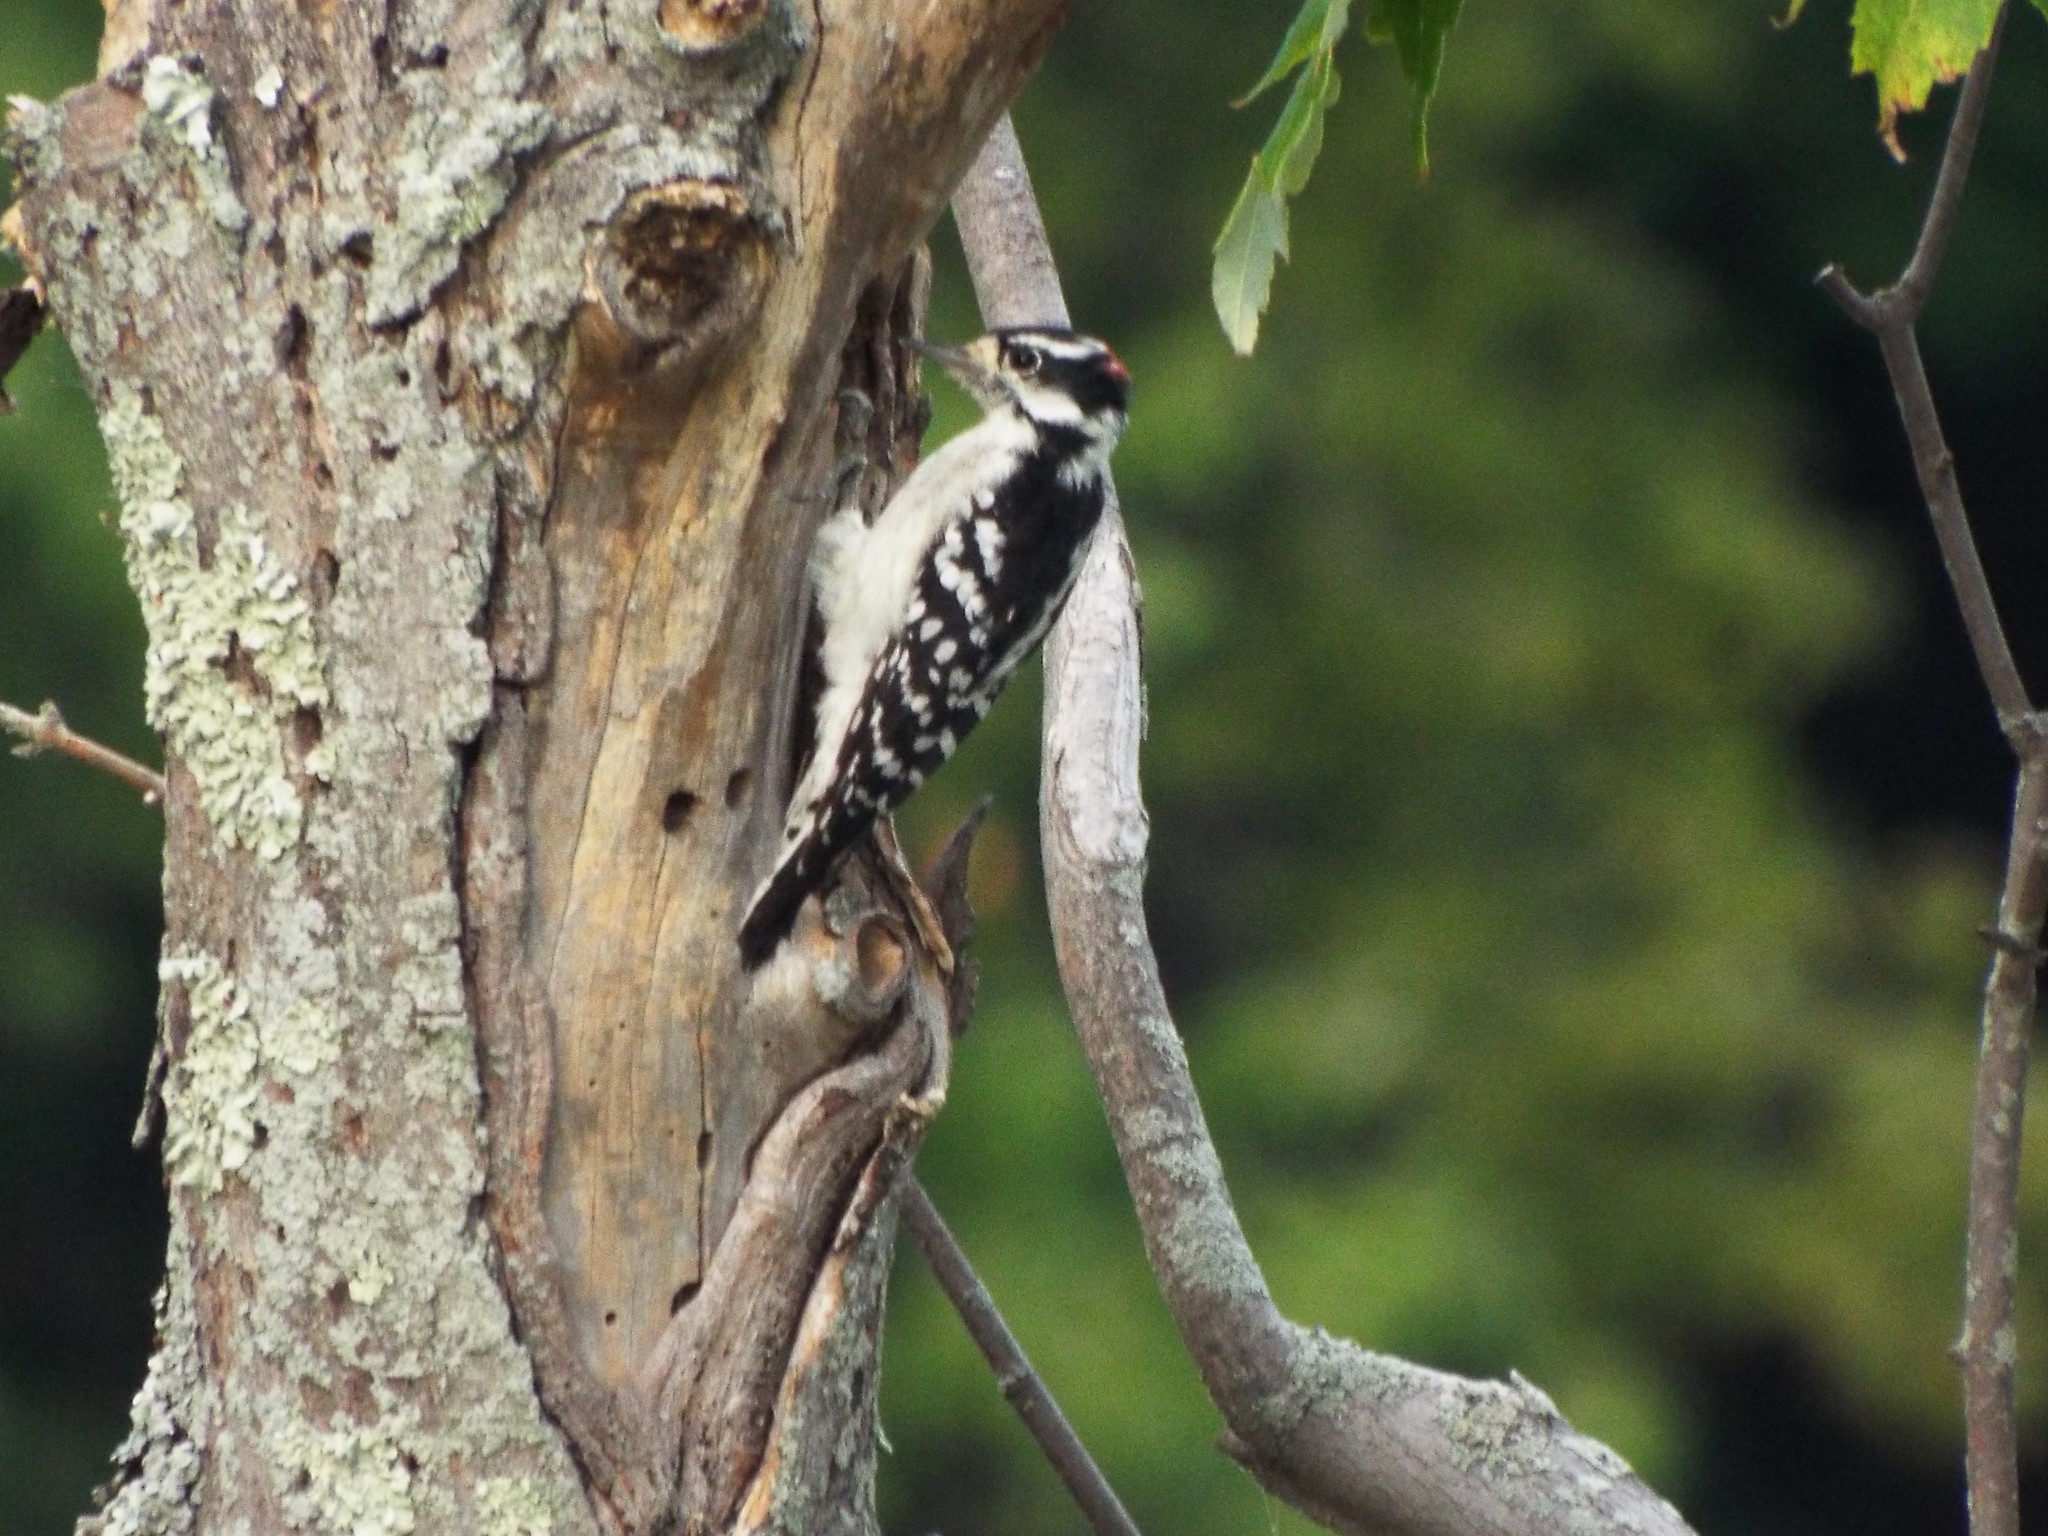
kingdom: Animalia
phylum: Chordata
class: Aves
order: Piciformes
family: Picidae
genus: Dryobates
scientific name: Dryobates pubescens
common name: Downy woodpecker
